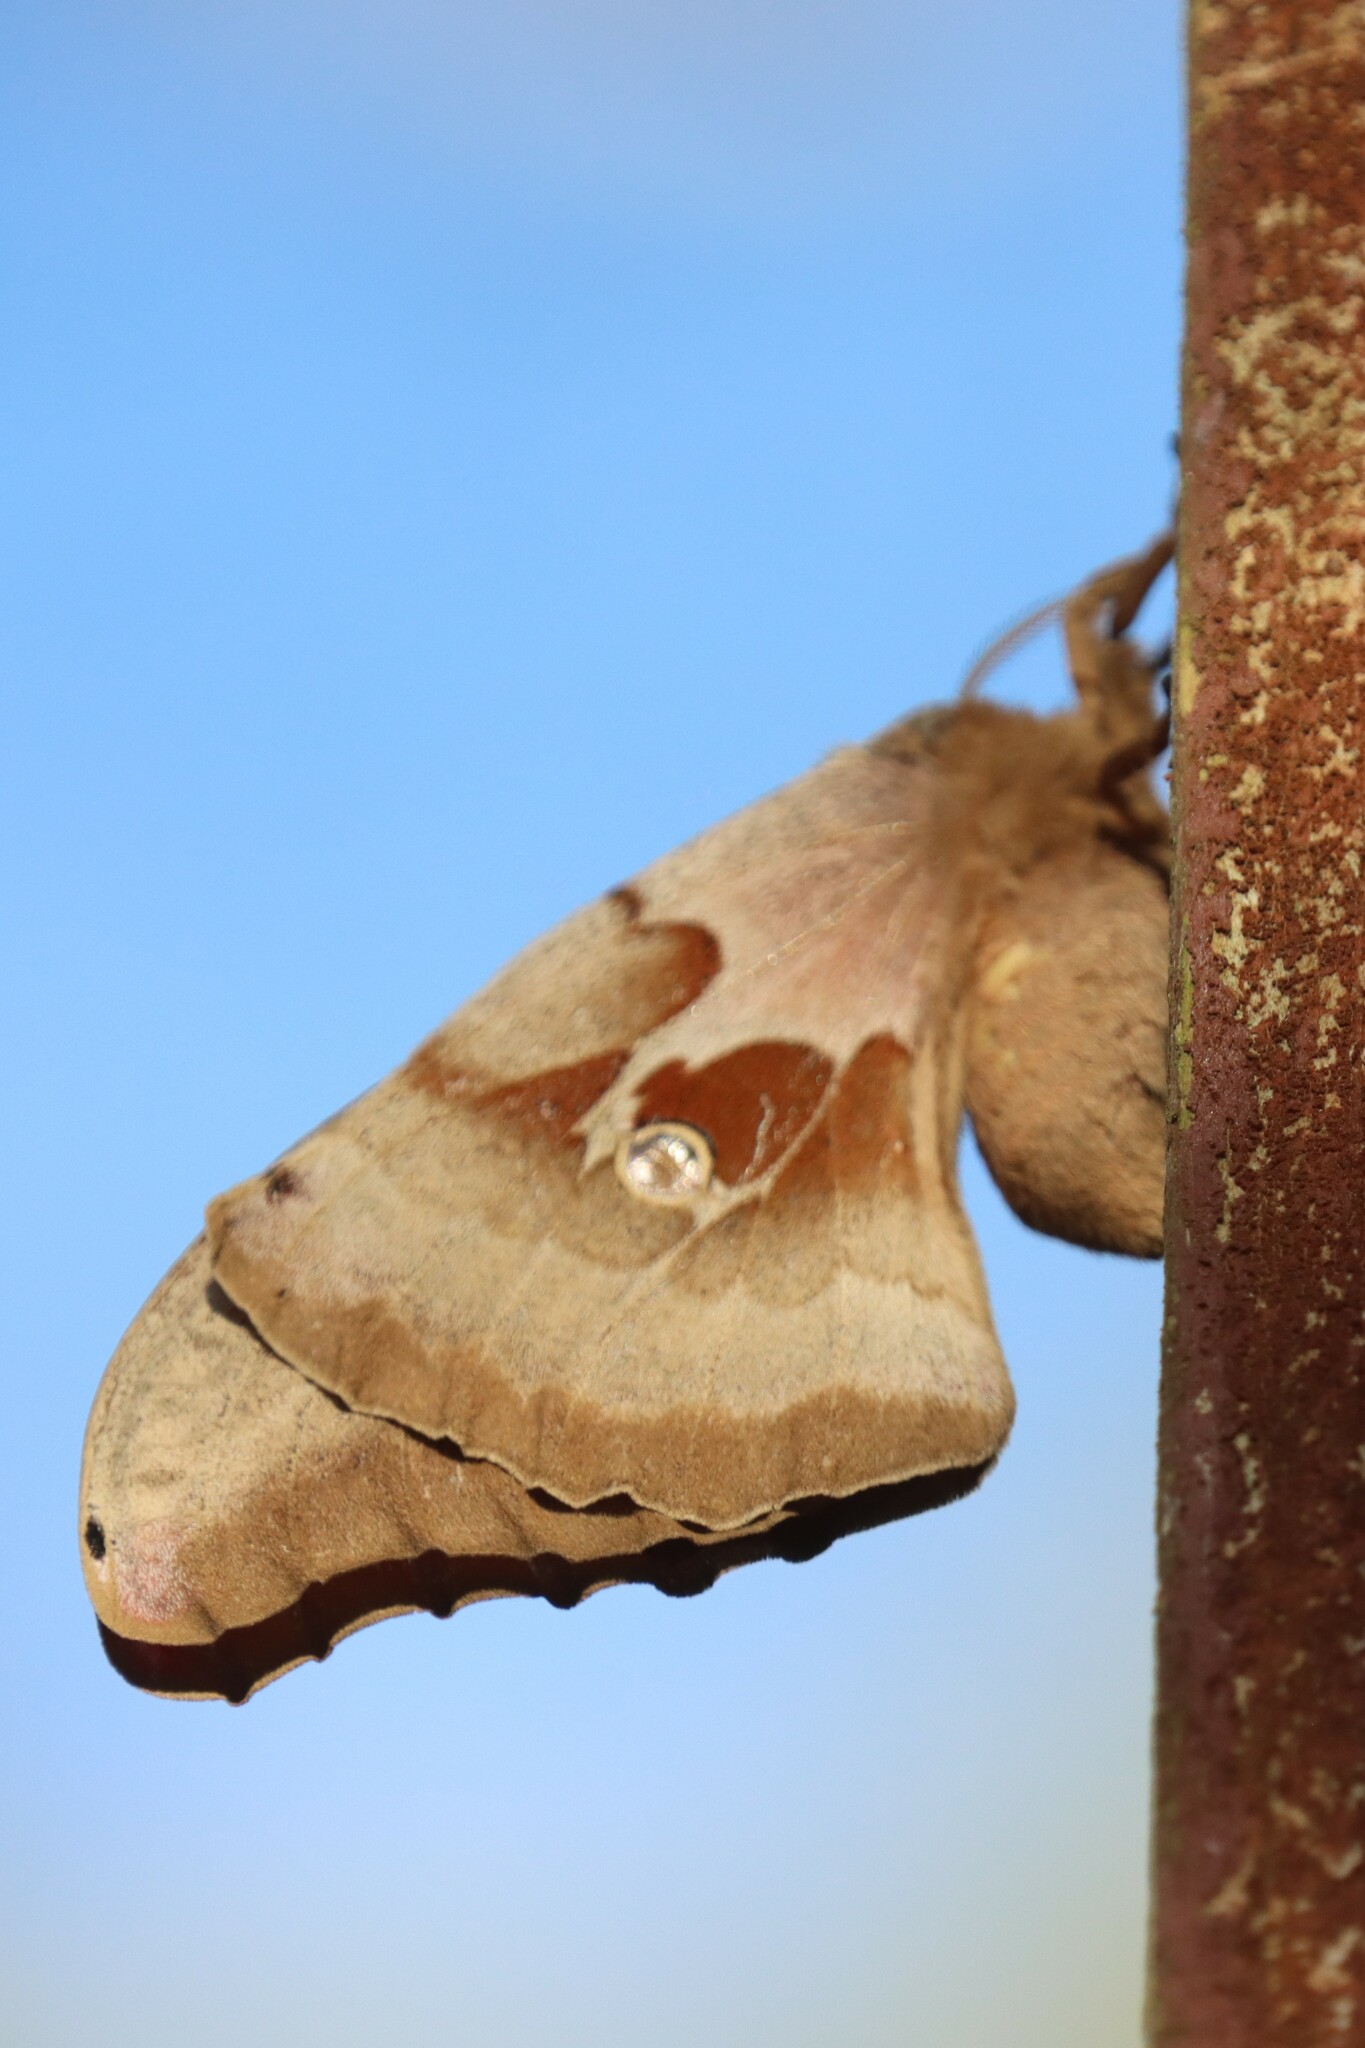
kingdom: Animalia
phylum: Arthropoda
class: Insecta
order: Lepidoptera
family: Saturniidae
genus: Antheraea
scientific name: Antheraea polyphemus
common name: Polyphemus moth
